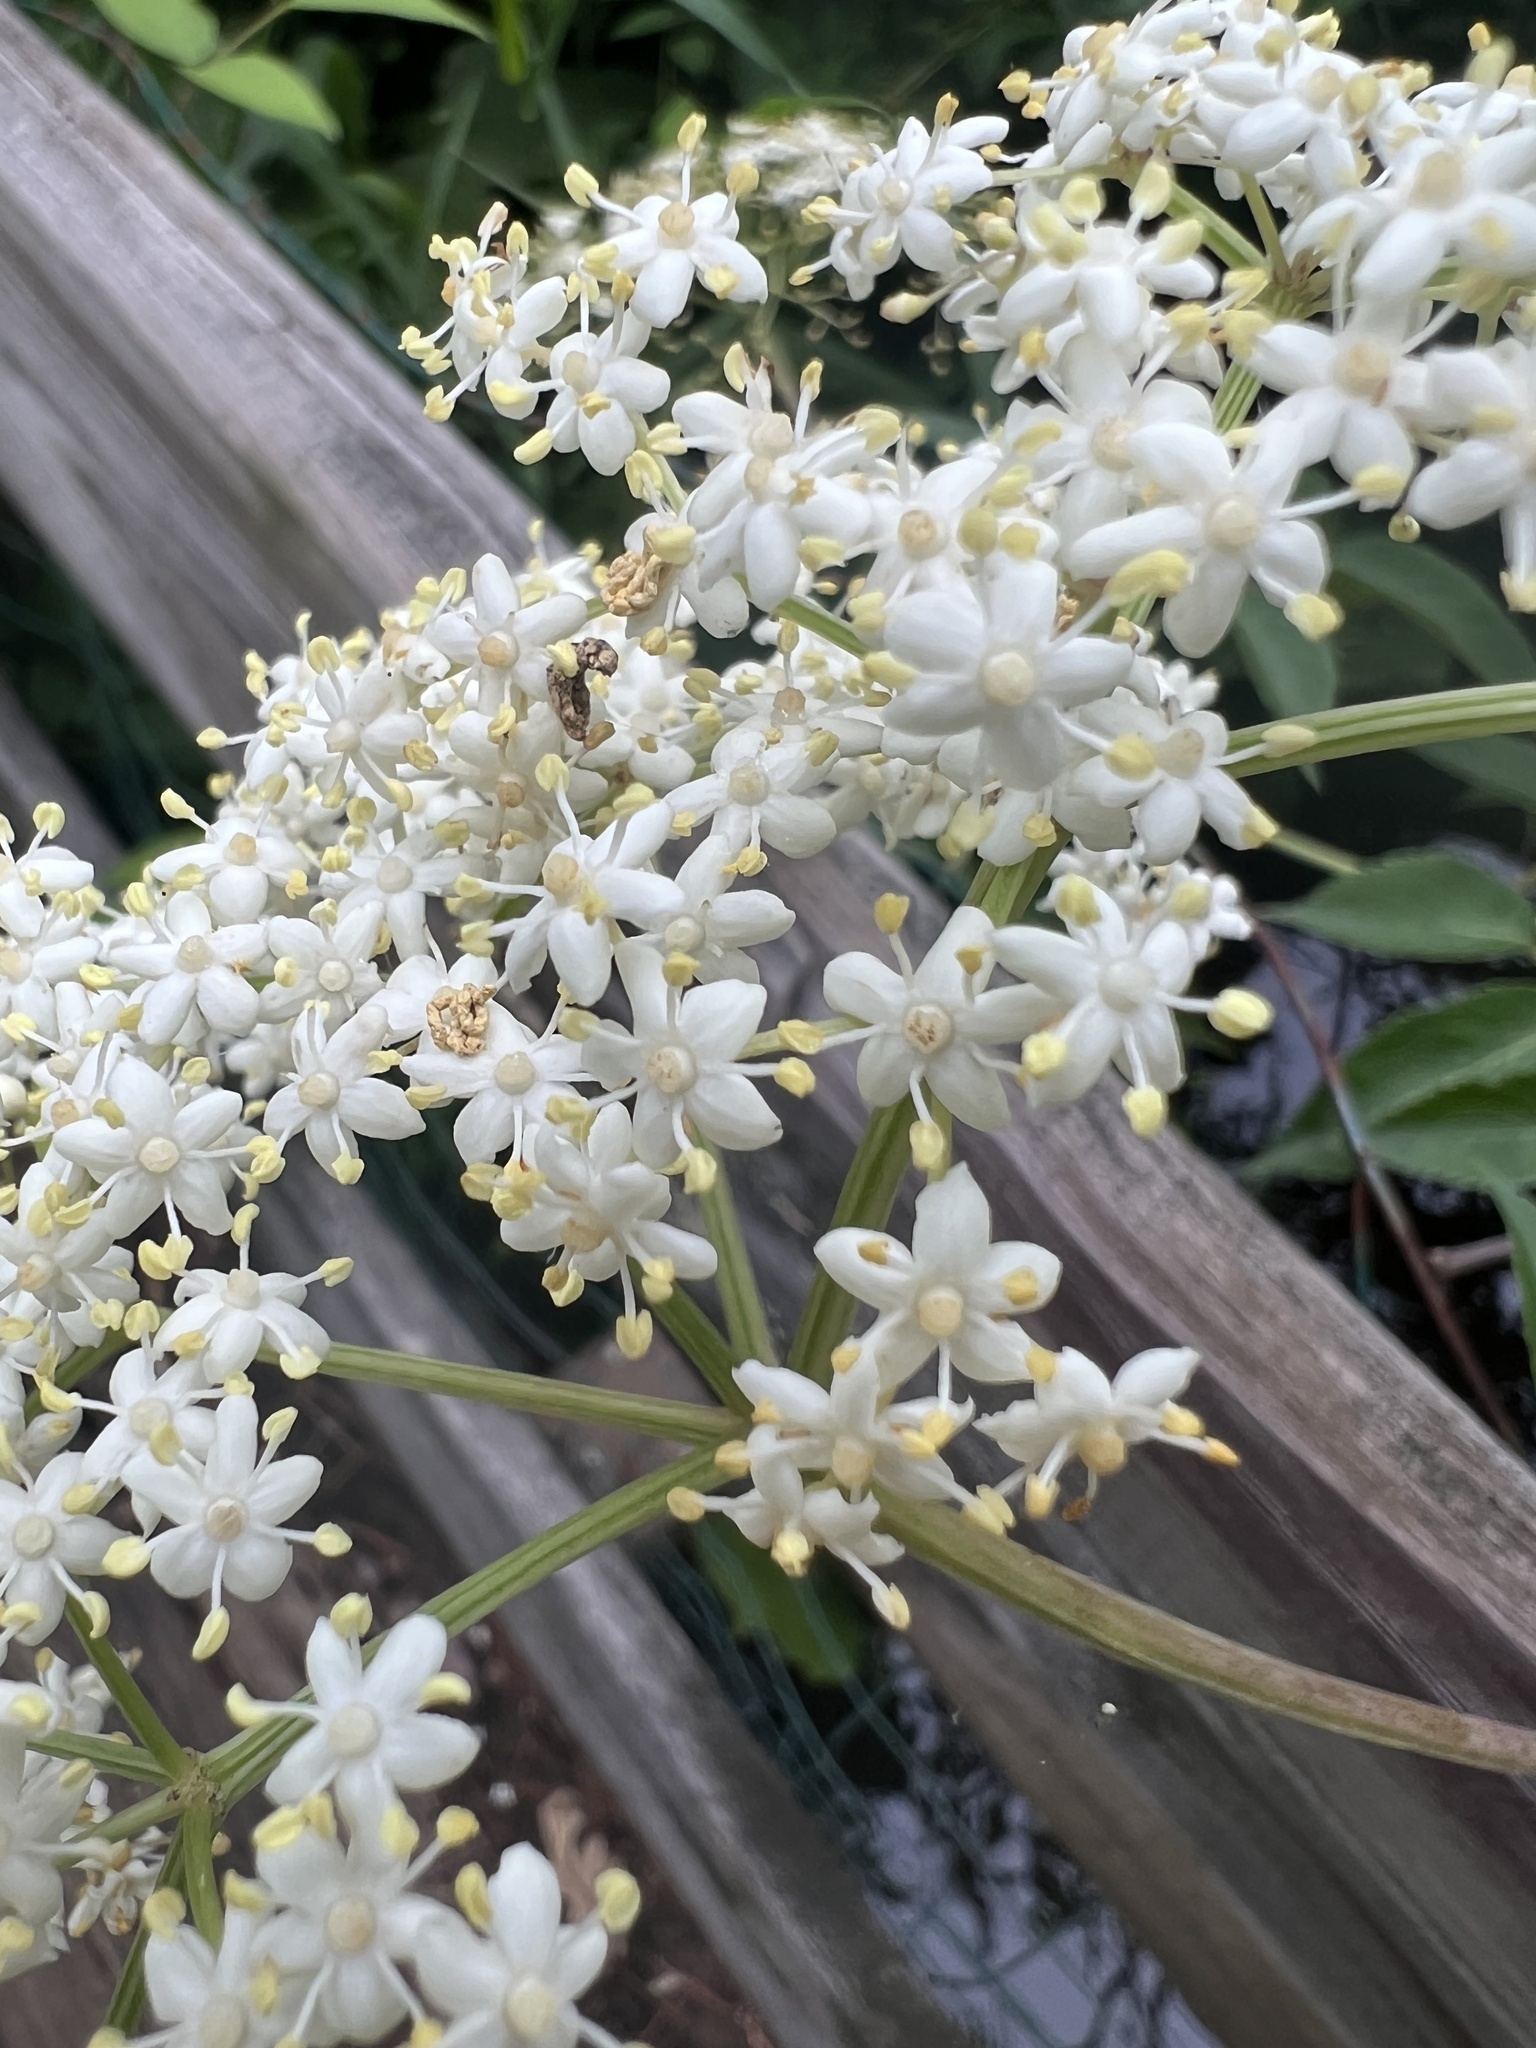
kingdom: Plantae
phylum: Tracheophyta
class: Magnoliopsida
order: Dipsacales
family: Viburnaceae
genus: Sambucus
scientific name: Sambucus canadensis
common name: American elder
